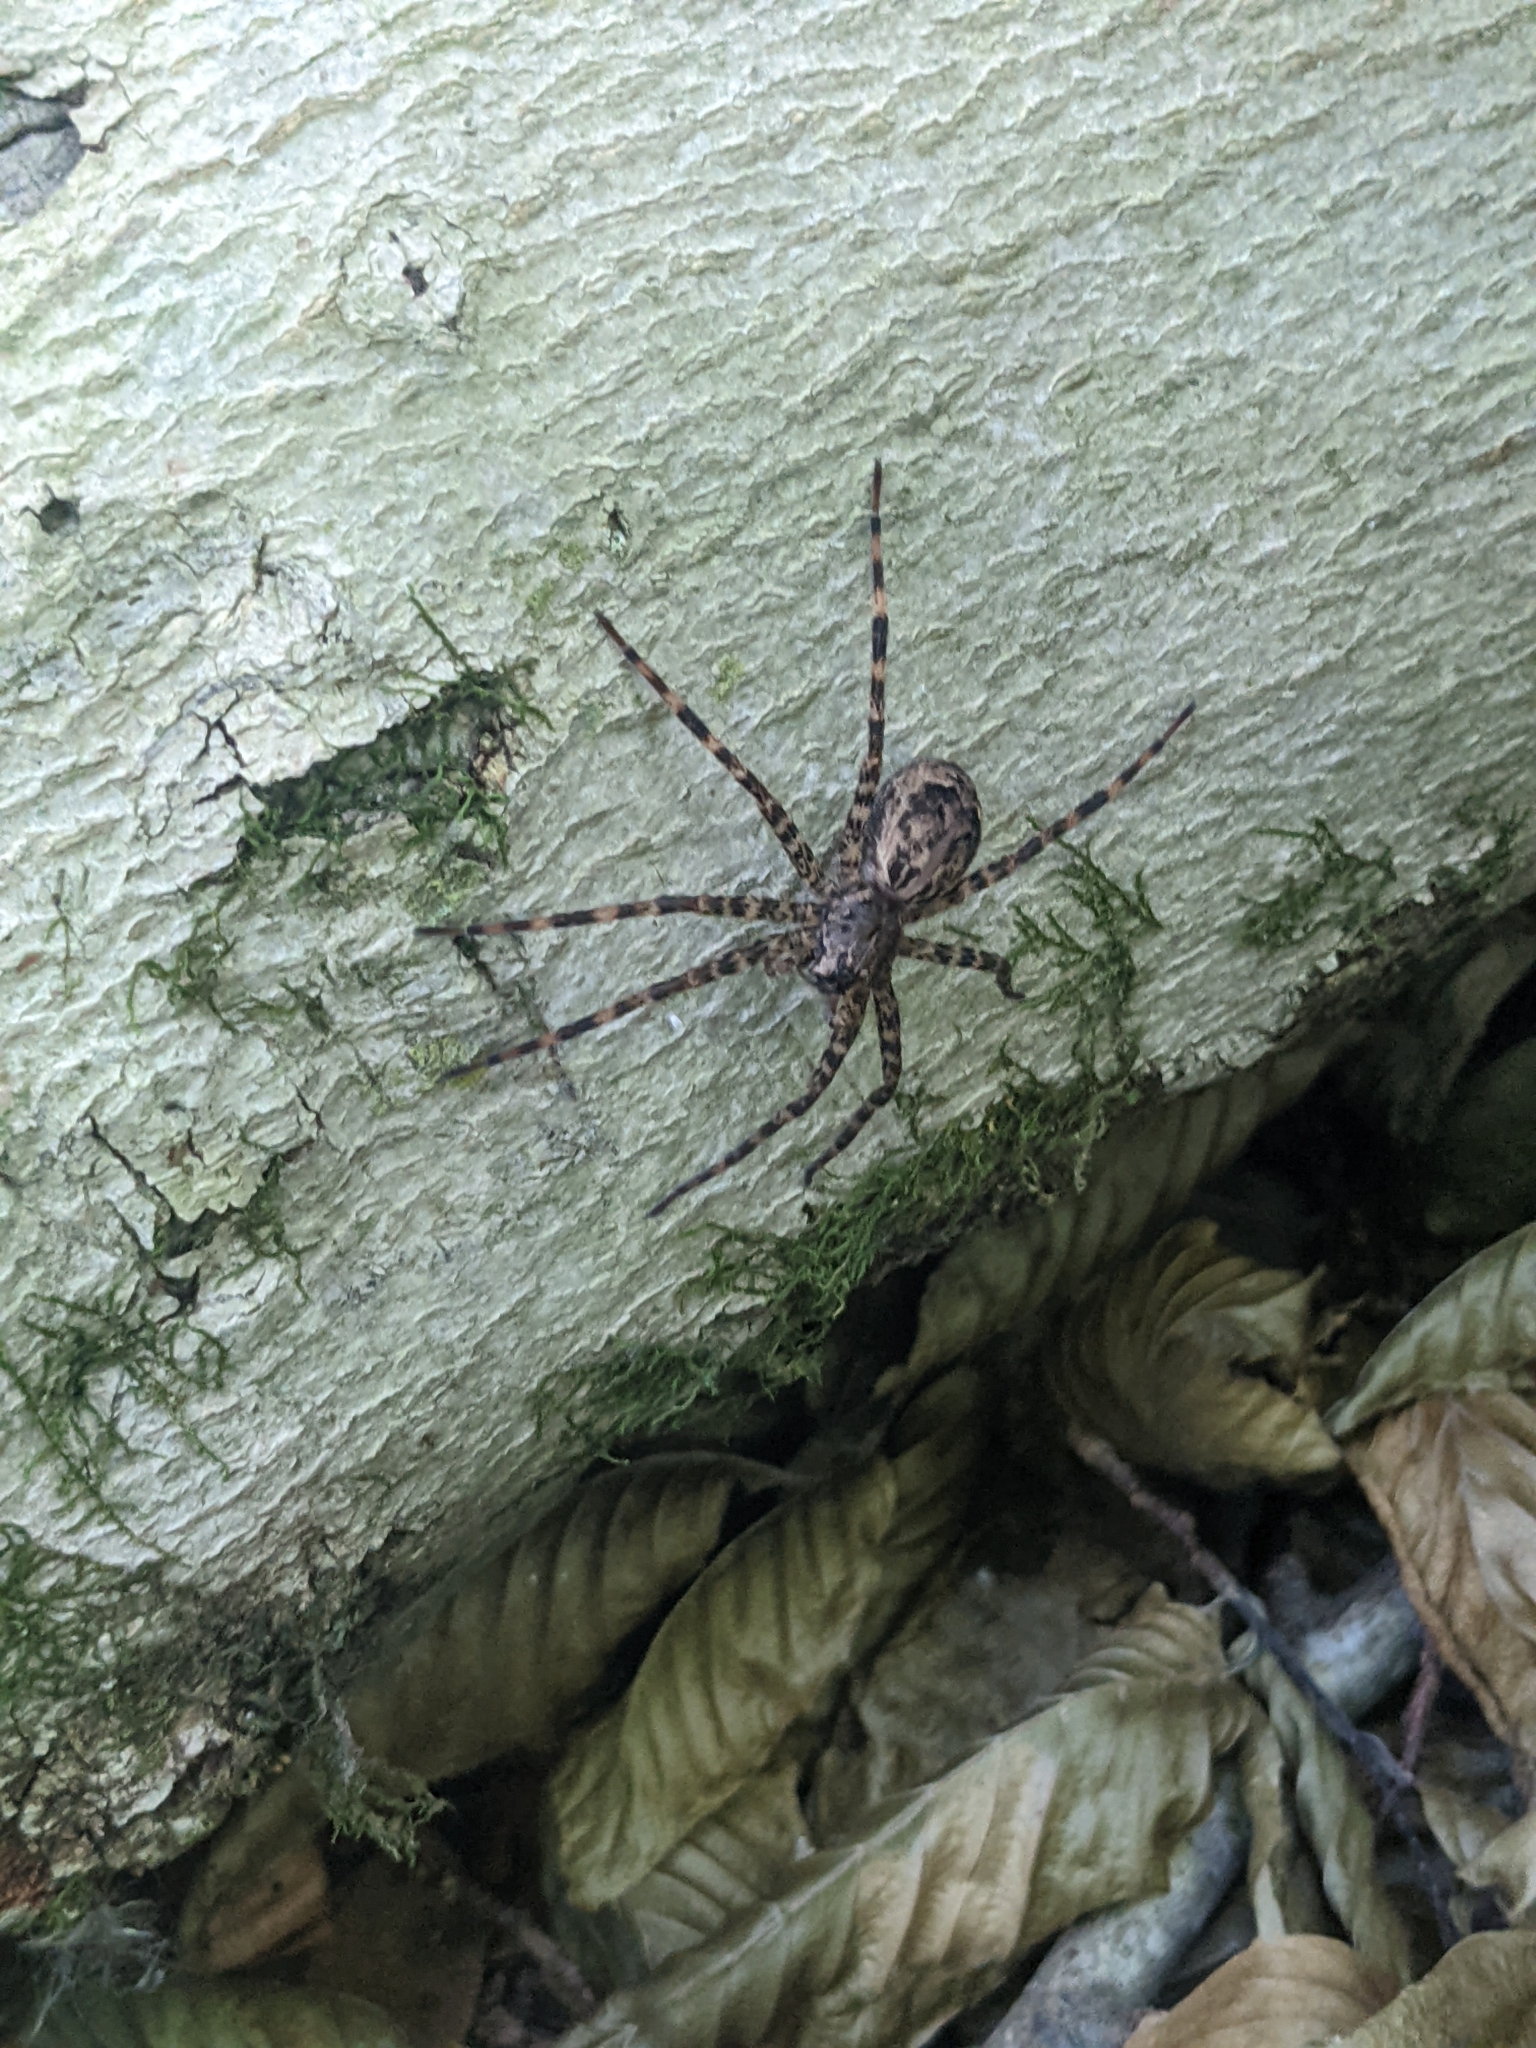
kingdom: Animalia
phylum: Arthropoda
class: Arachnida
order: Araneae
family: Pisauridae
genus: Dolomedes
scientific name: Dolomedes tenebrosus
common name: Dark fishing spider
